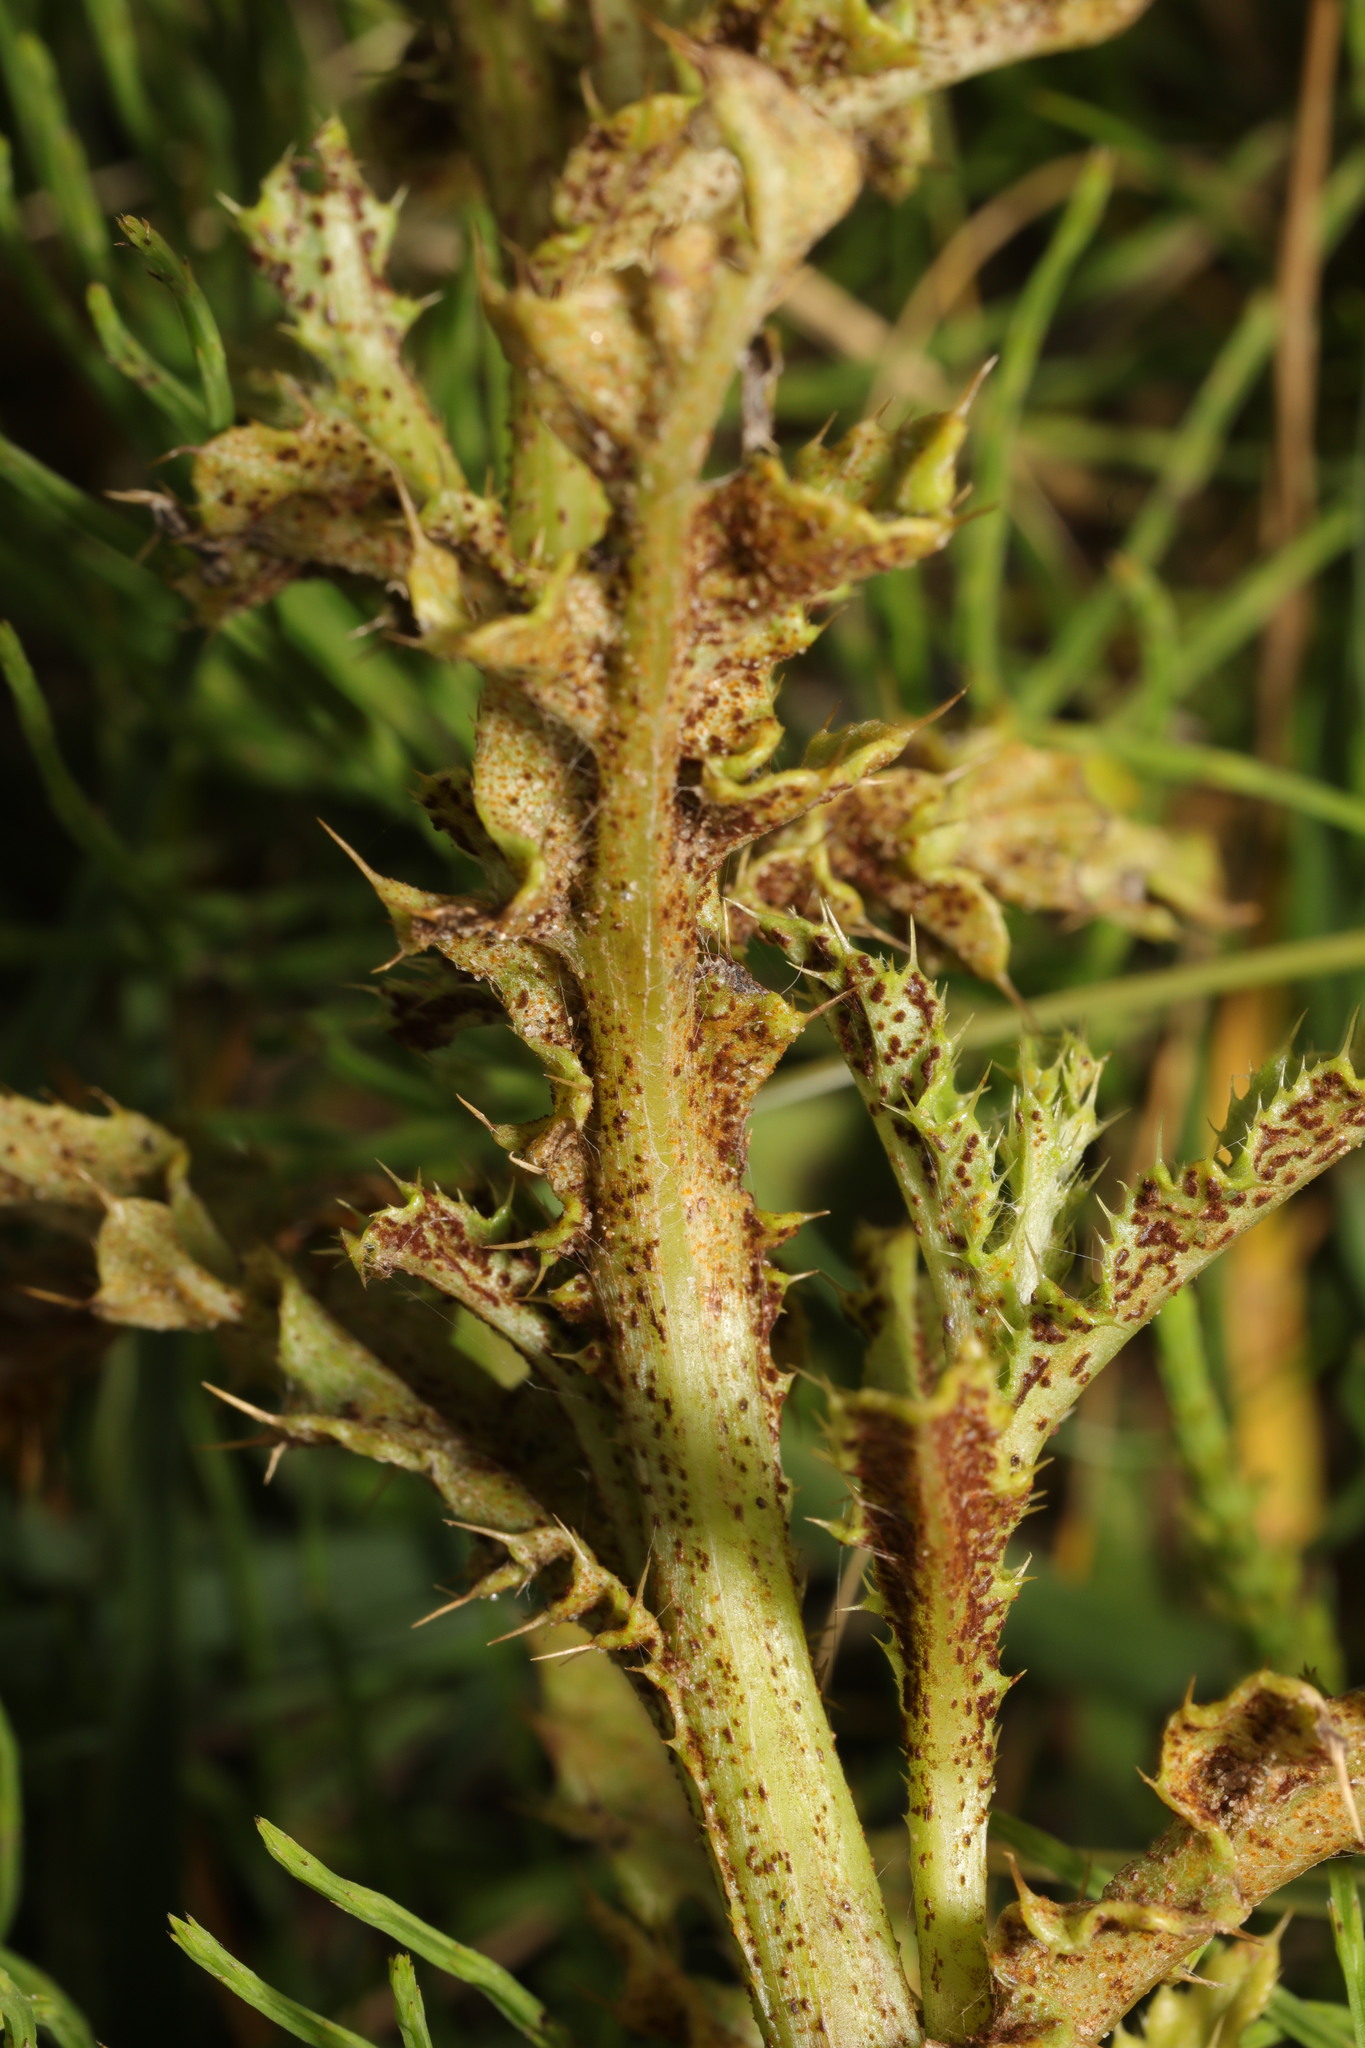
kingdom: Fungi
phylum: Basidiomycota
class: Pucciniomycetes
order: Pucciniales
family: Pucciniaceae
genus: Puccinia
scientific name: Puccinia suaveolens
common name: Thistle rust
